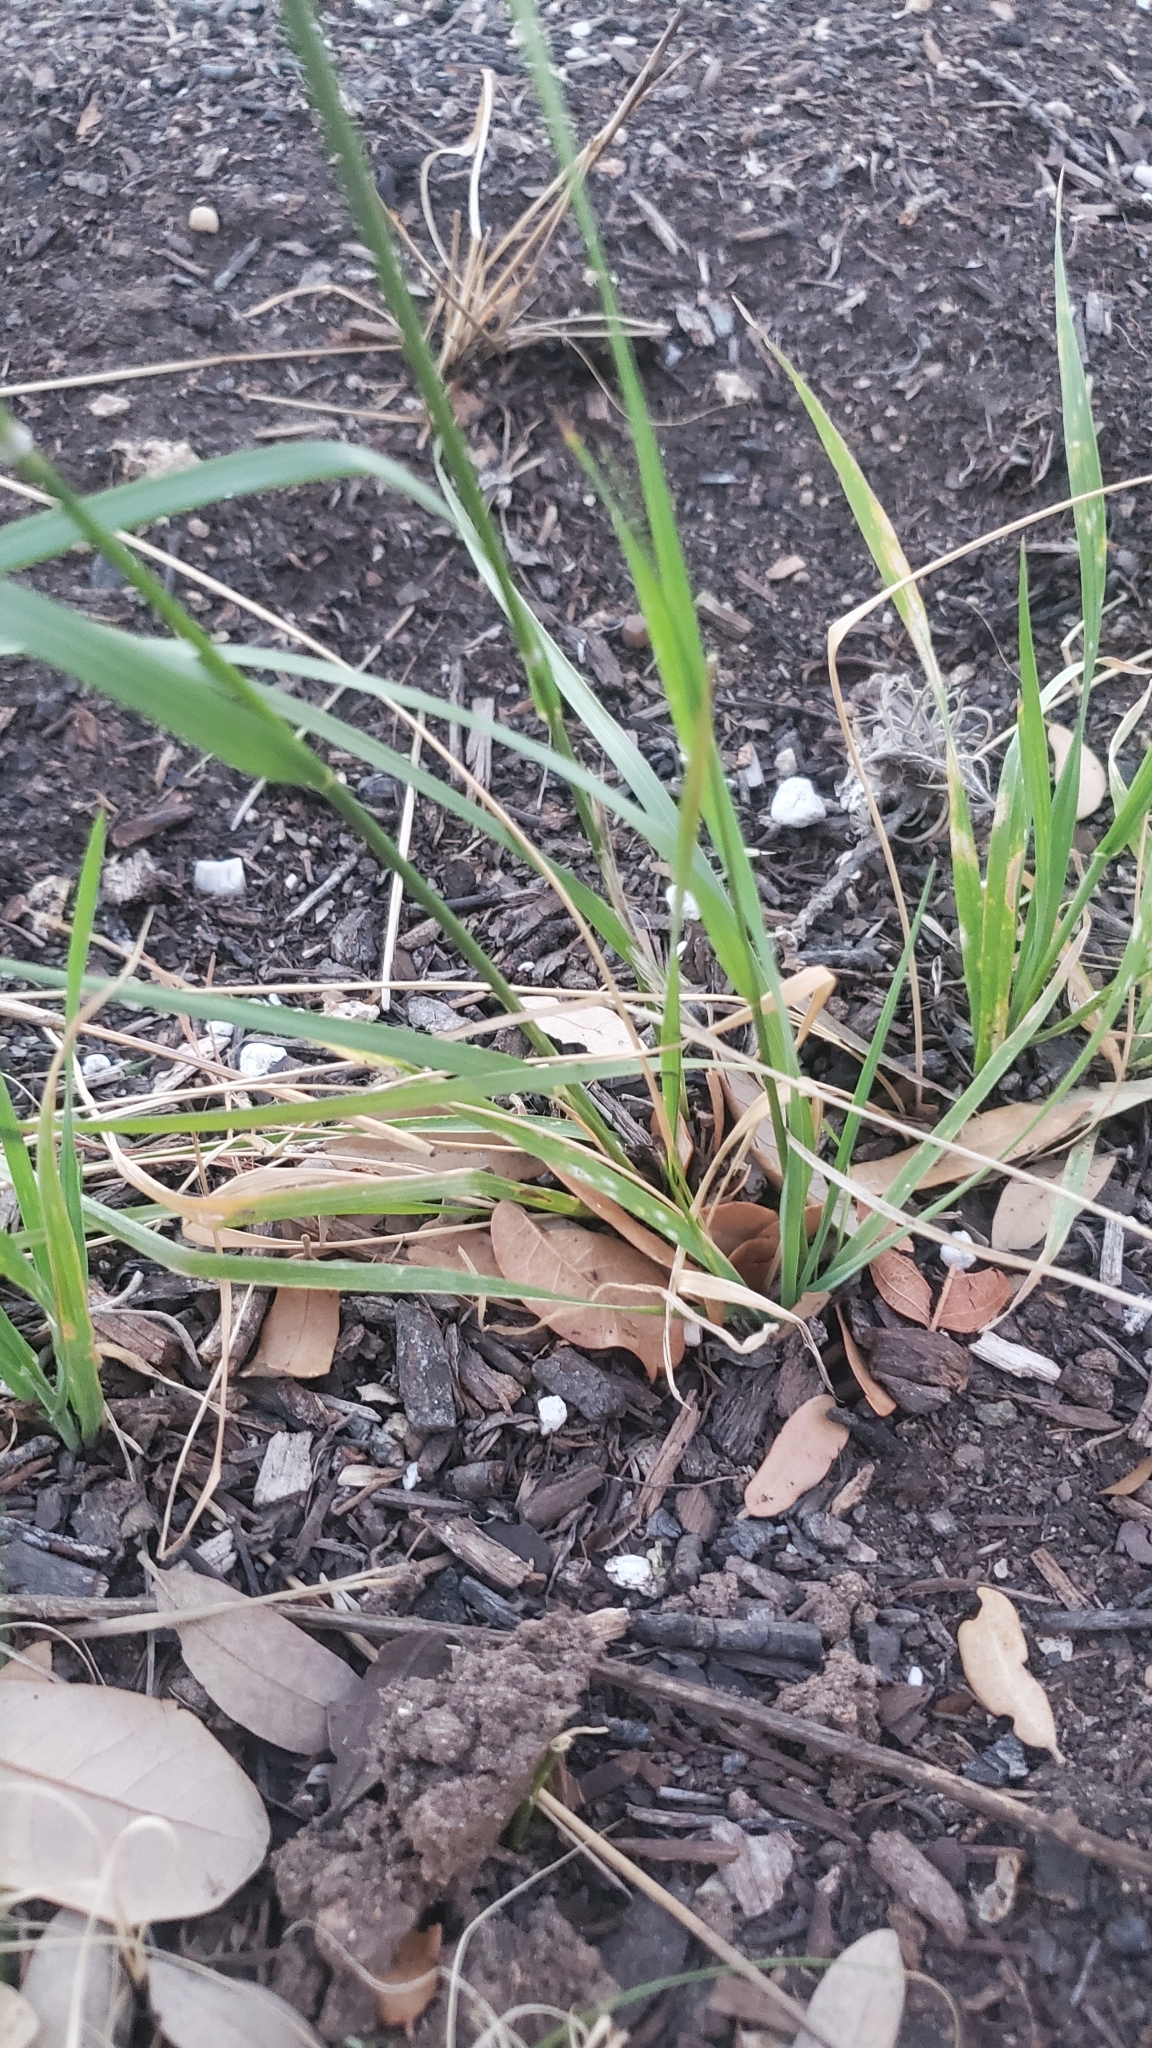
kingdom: Plantae
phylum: Tracheophyta
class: Liliopsida
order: Poales
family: Poaceae
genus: Nassella
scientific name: Nassella leucotricha
